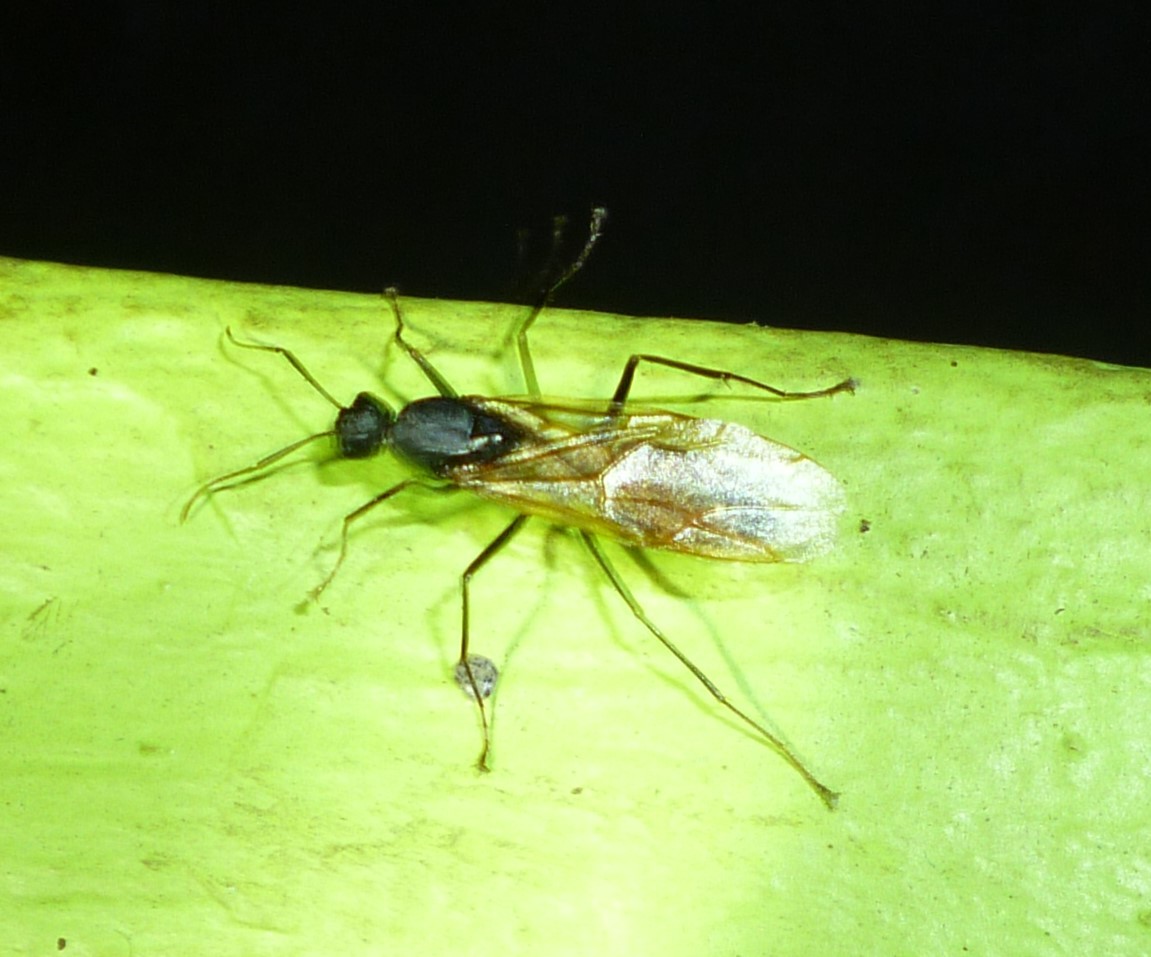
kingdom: Animalia
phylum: Arthropoda
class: Insecta
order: Hymenoptera
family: Formicidae
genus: Camponotus
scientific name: Camponotus pennsylvanicus
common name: Black carpenter ant
